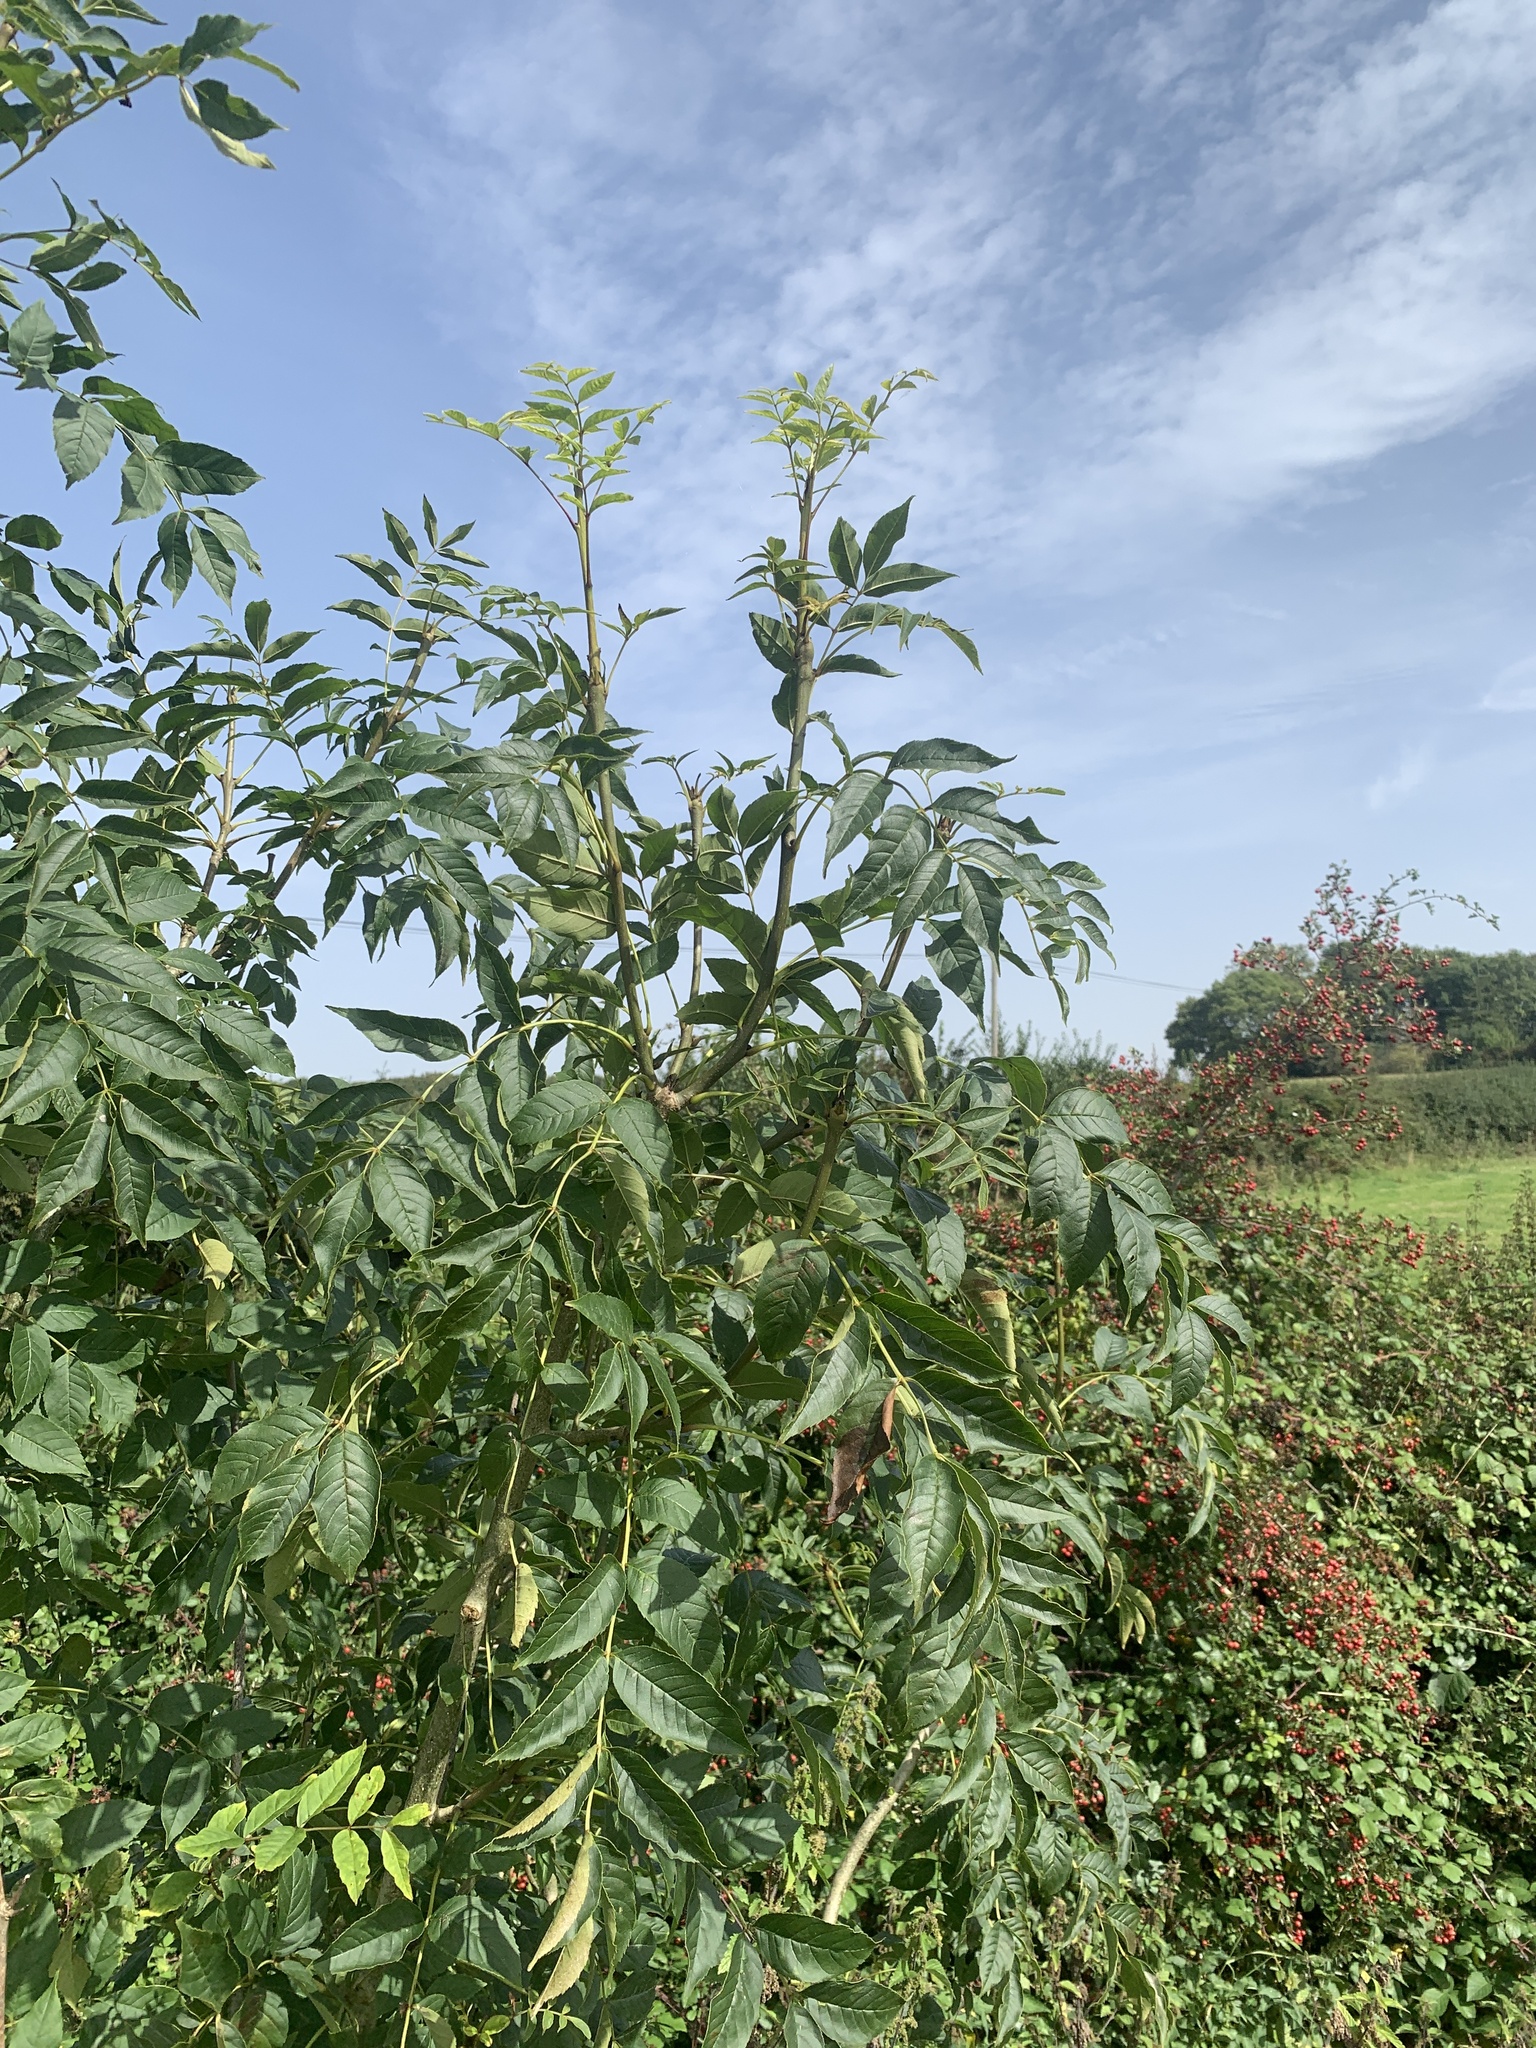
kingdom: Plantae
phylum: Tracheophyta
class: Magnoliopsida
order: Lamiales
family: Oleaceae
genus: Fraxinus
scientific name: Fraxinus excelsior
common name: European ash
